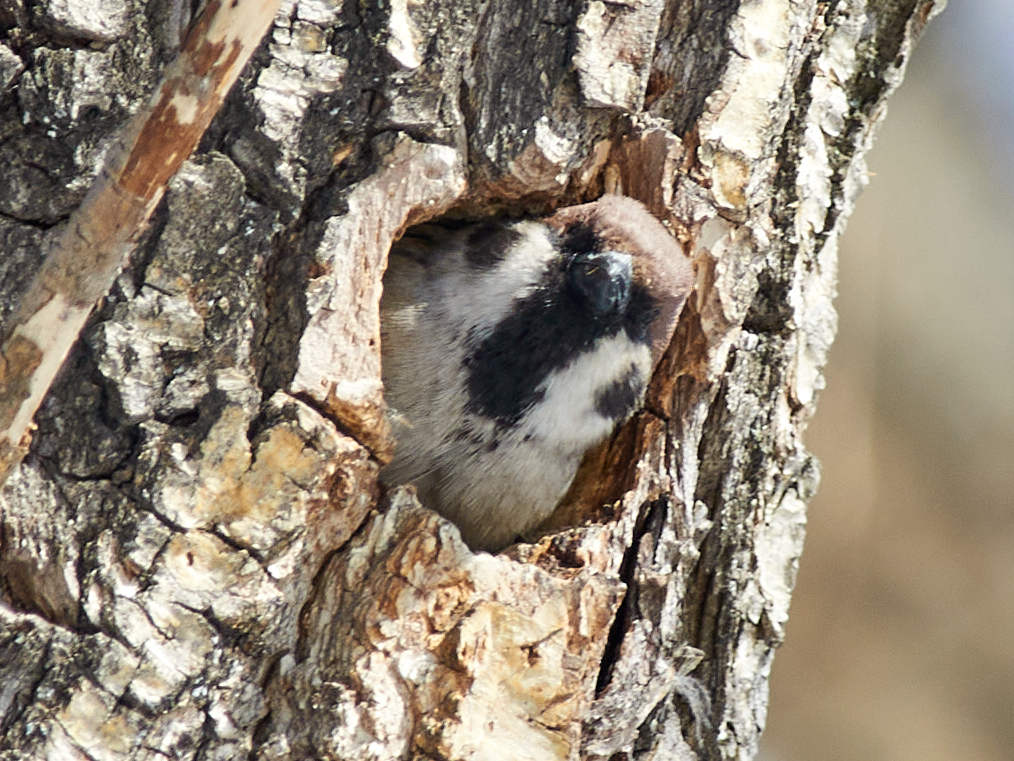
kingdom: Animalia
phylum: Chordata
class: Aves
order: Passeriformes
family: Passeridae
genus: Passer
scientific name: Passer montanus
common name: Eurasian tree sparrow
